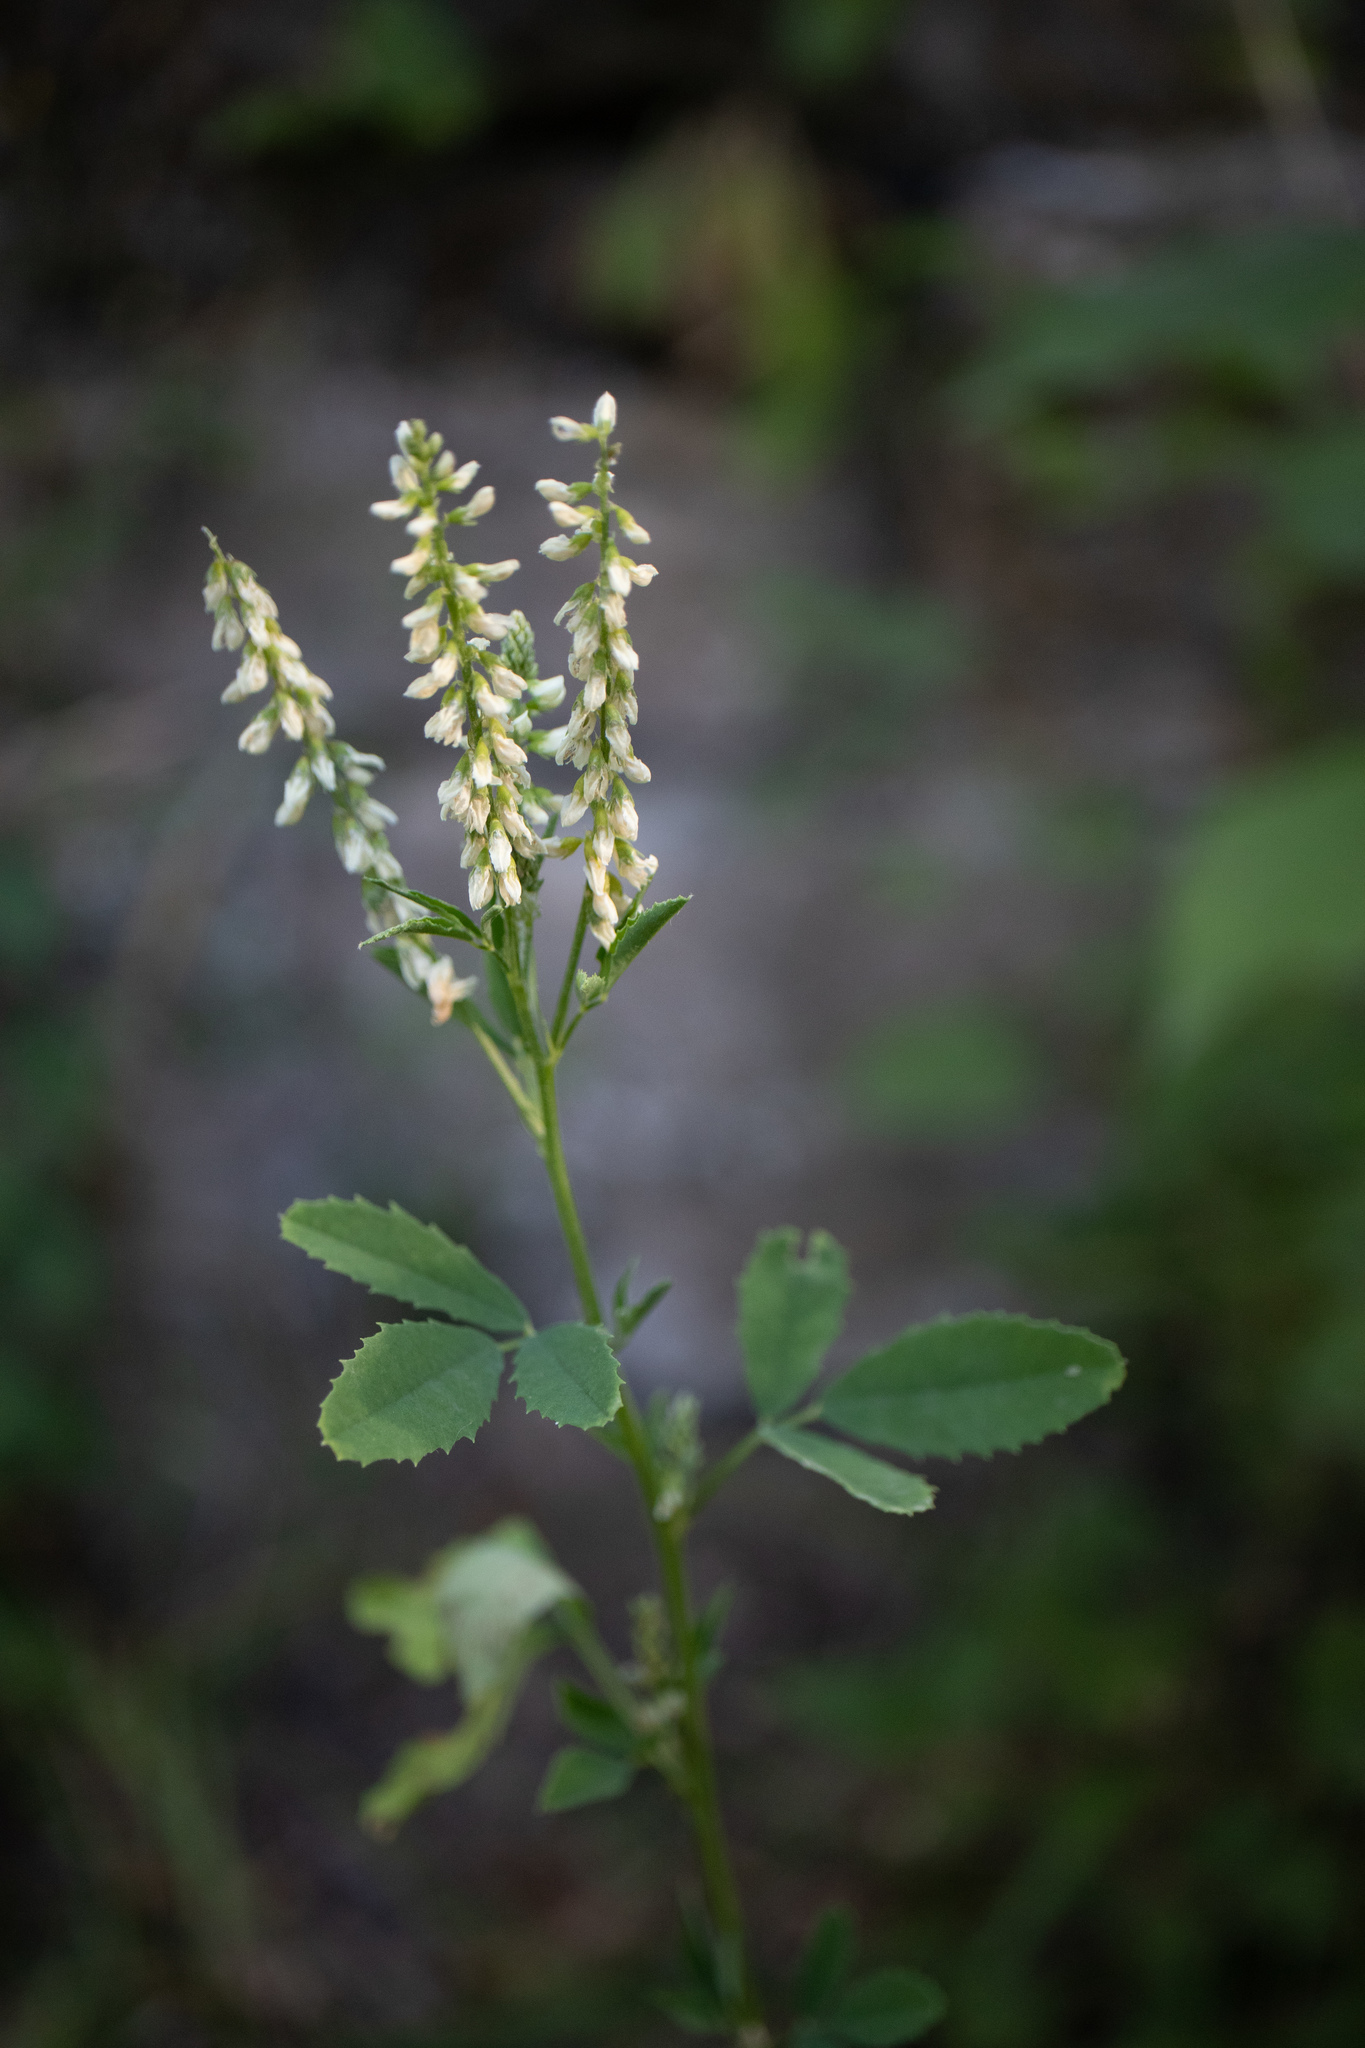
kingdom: Plantae
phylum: Tracheophyta
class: Magnoliopsida
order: Fabales
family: Fabaceae
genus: Melilotus
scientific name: Melilotus albus
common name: White melilot
